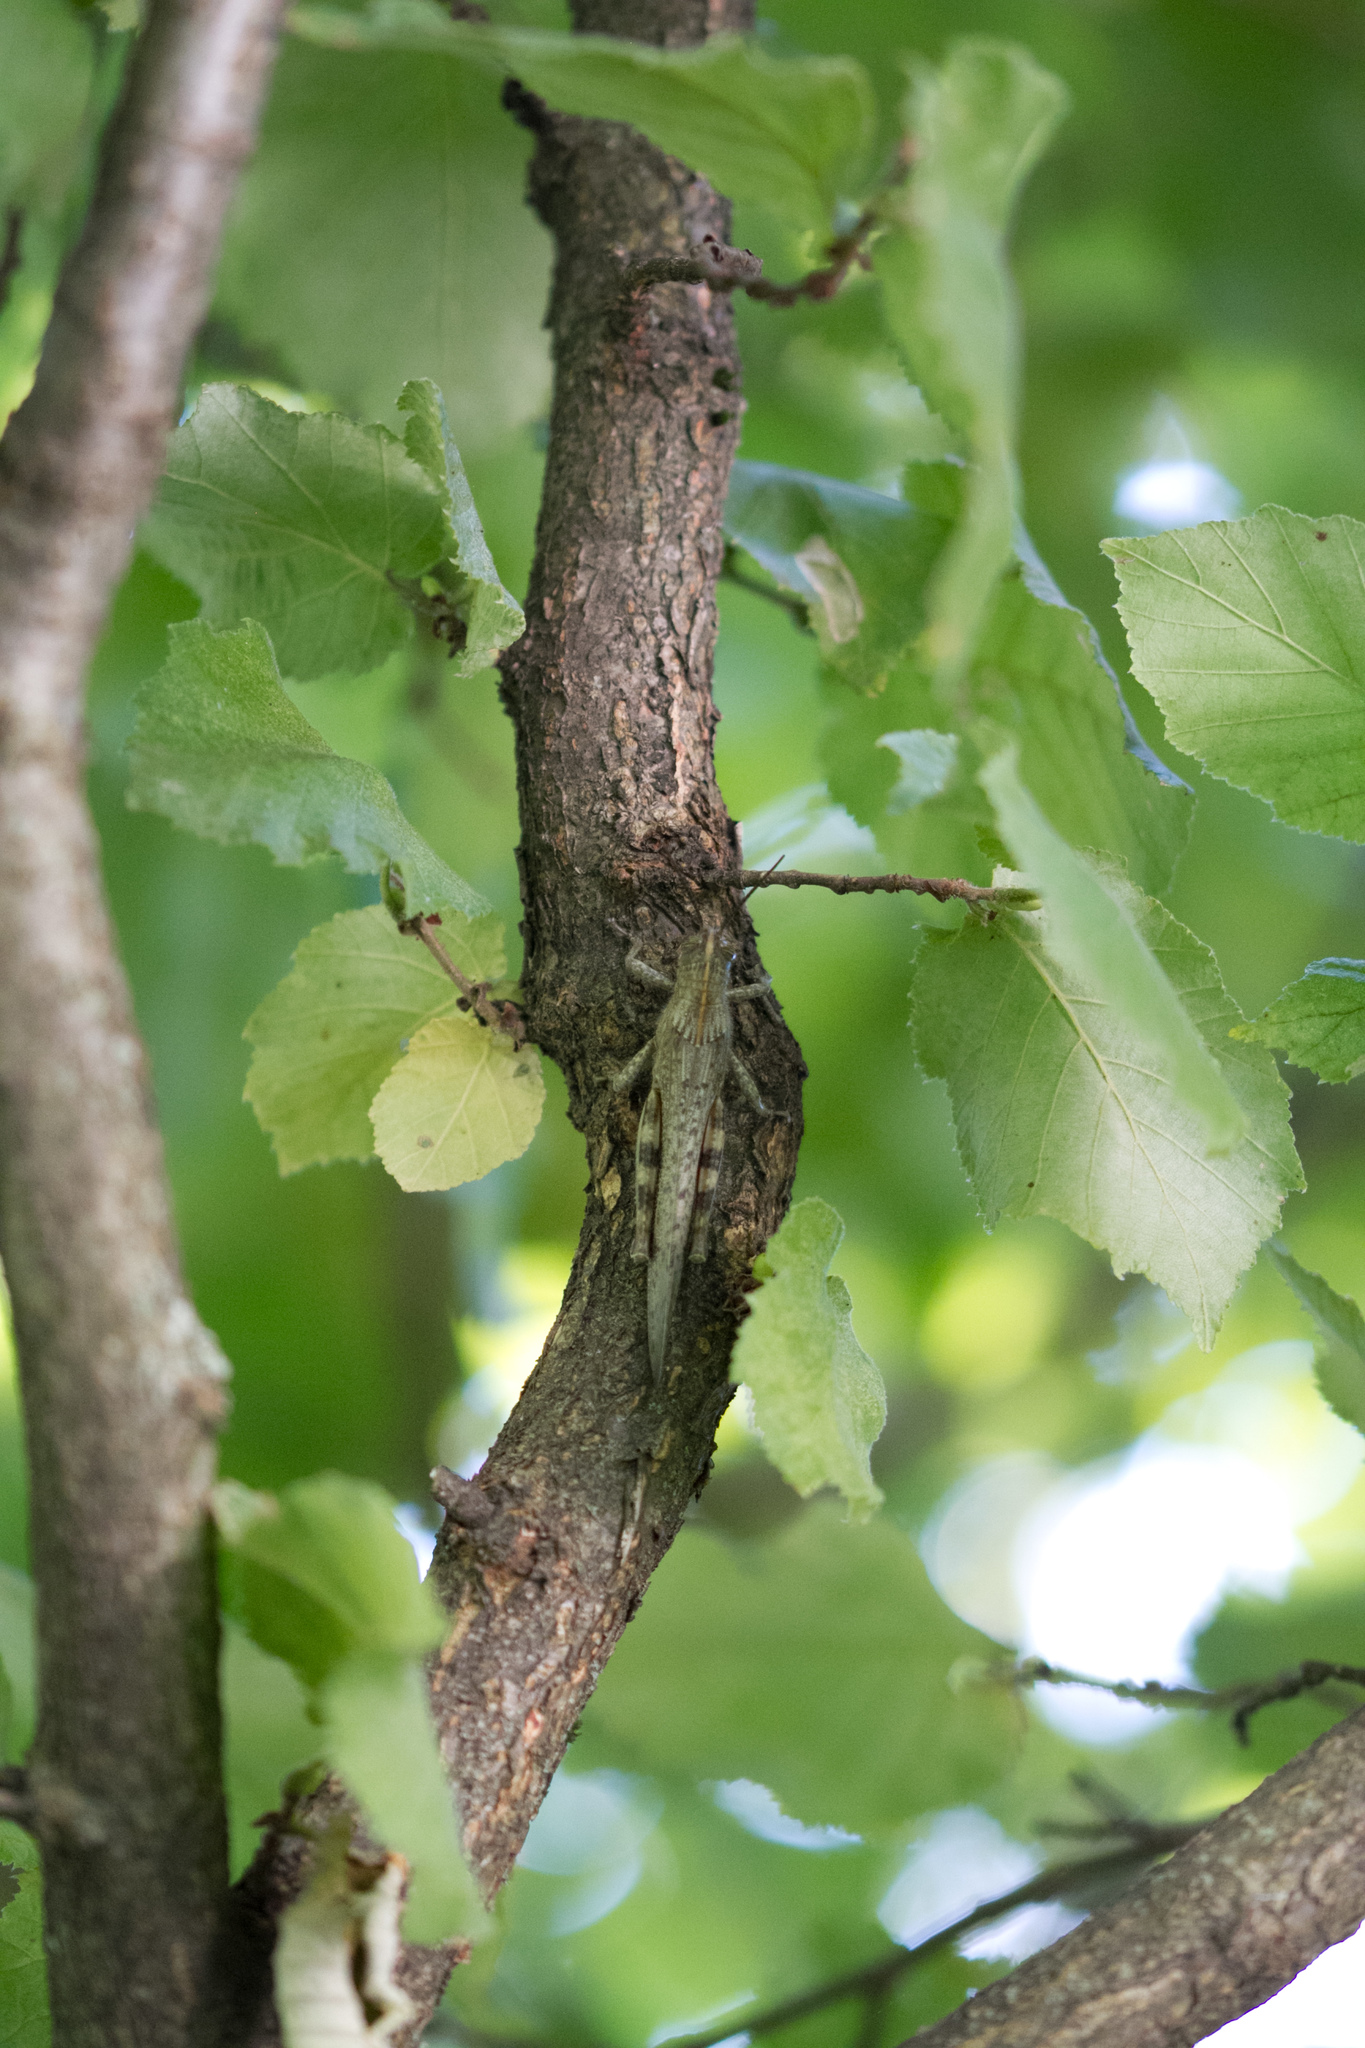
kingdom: Animalia
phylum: Arthropoda
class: Insecta
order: Orthoptera
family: Acrididae
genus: Anacridium
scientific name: Anacridium aegyptium
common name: Egyptian grasshopper
